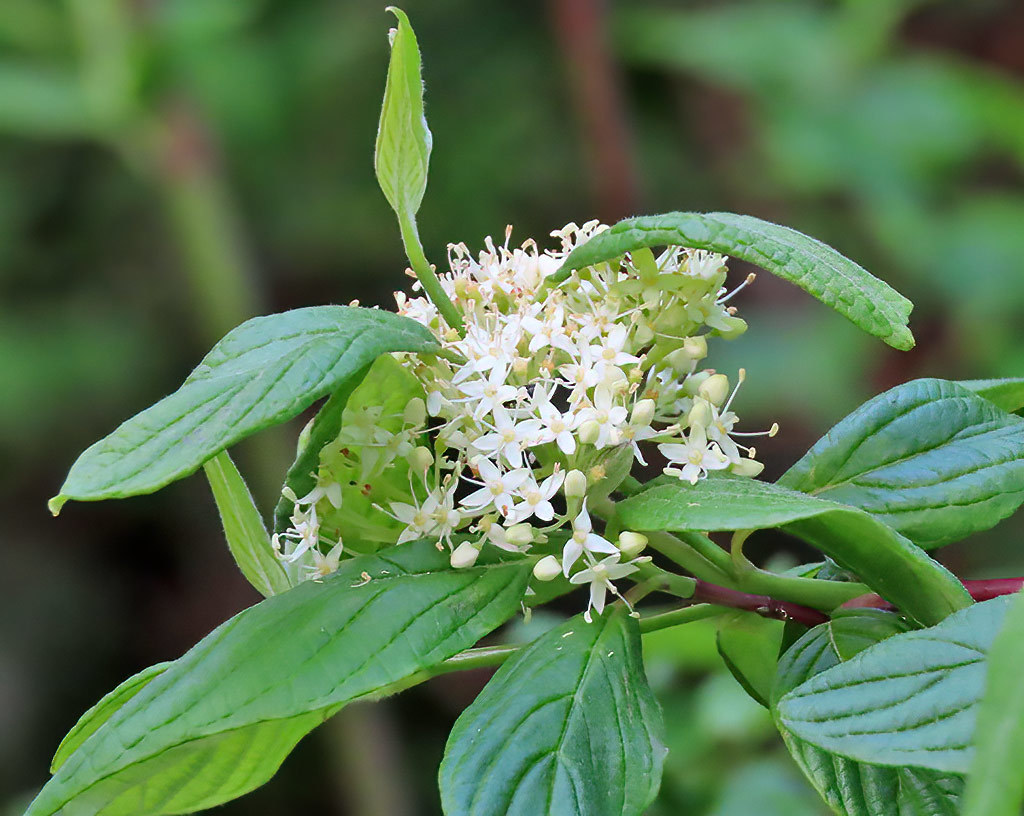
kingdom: Plantae
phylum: Tracheophyta
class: Magnoliopsida
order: Cornales
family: Cornaceae
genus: Cornus
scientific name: Cornus sericea
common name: Red-osier dogwood
